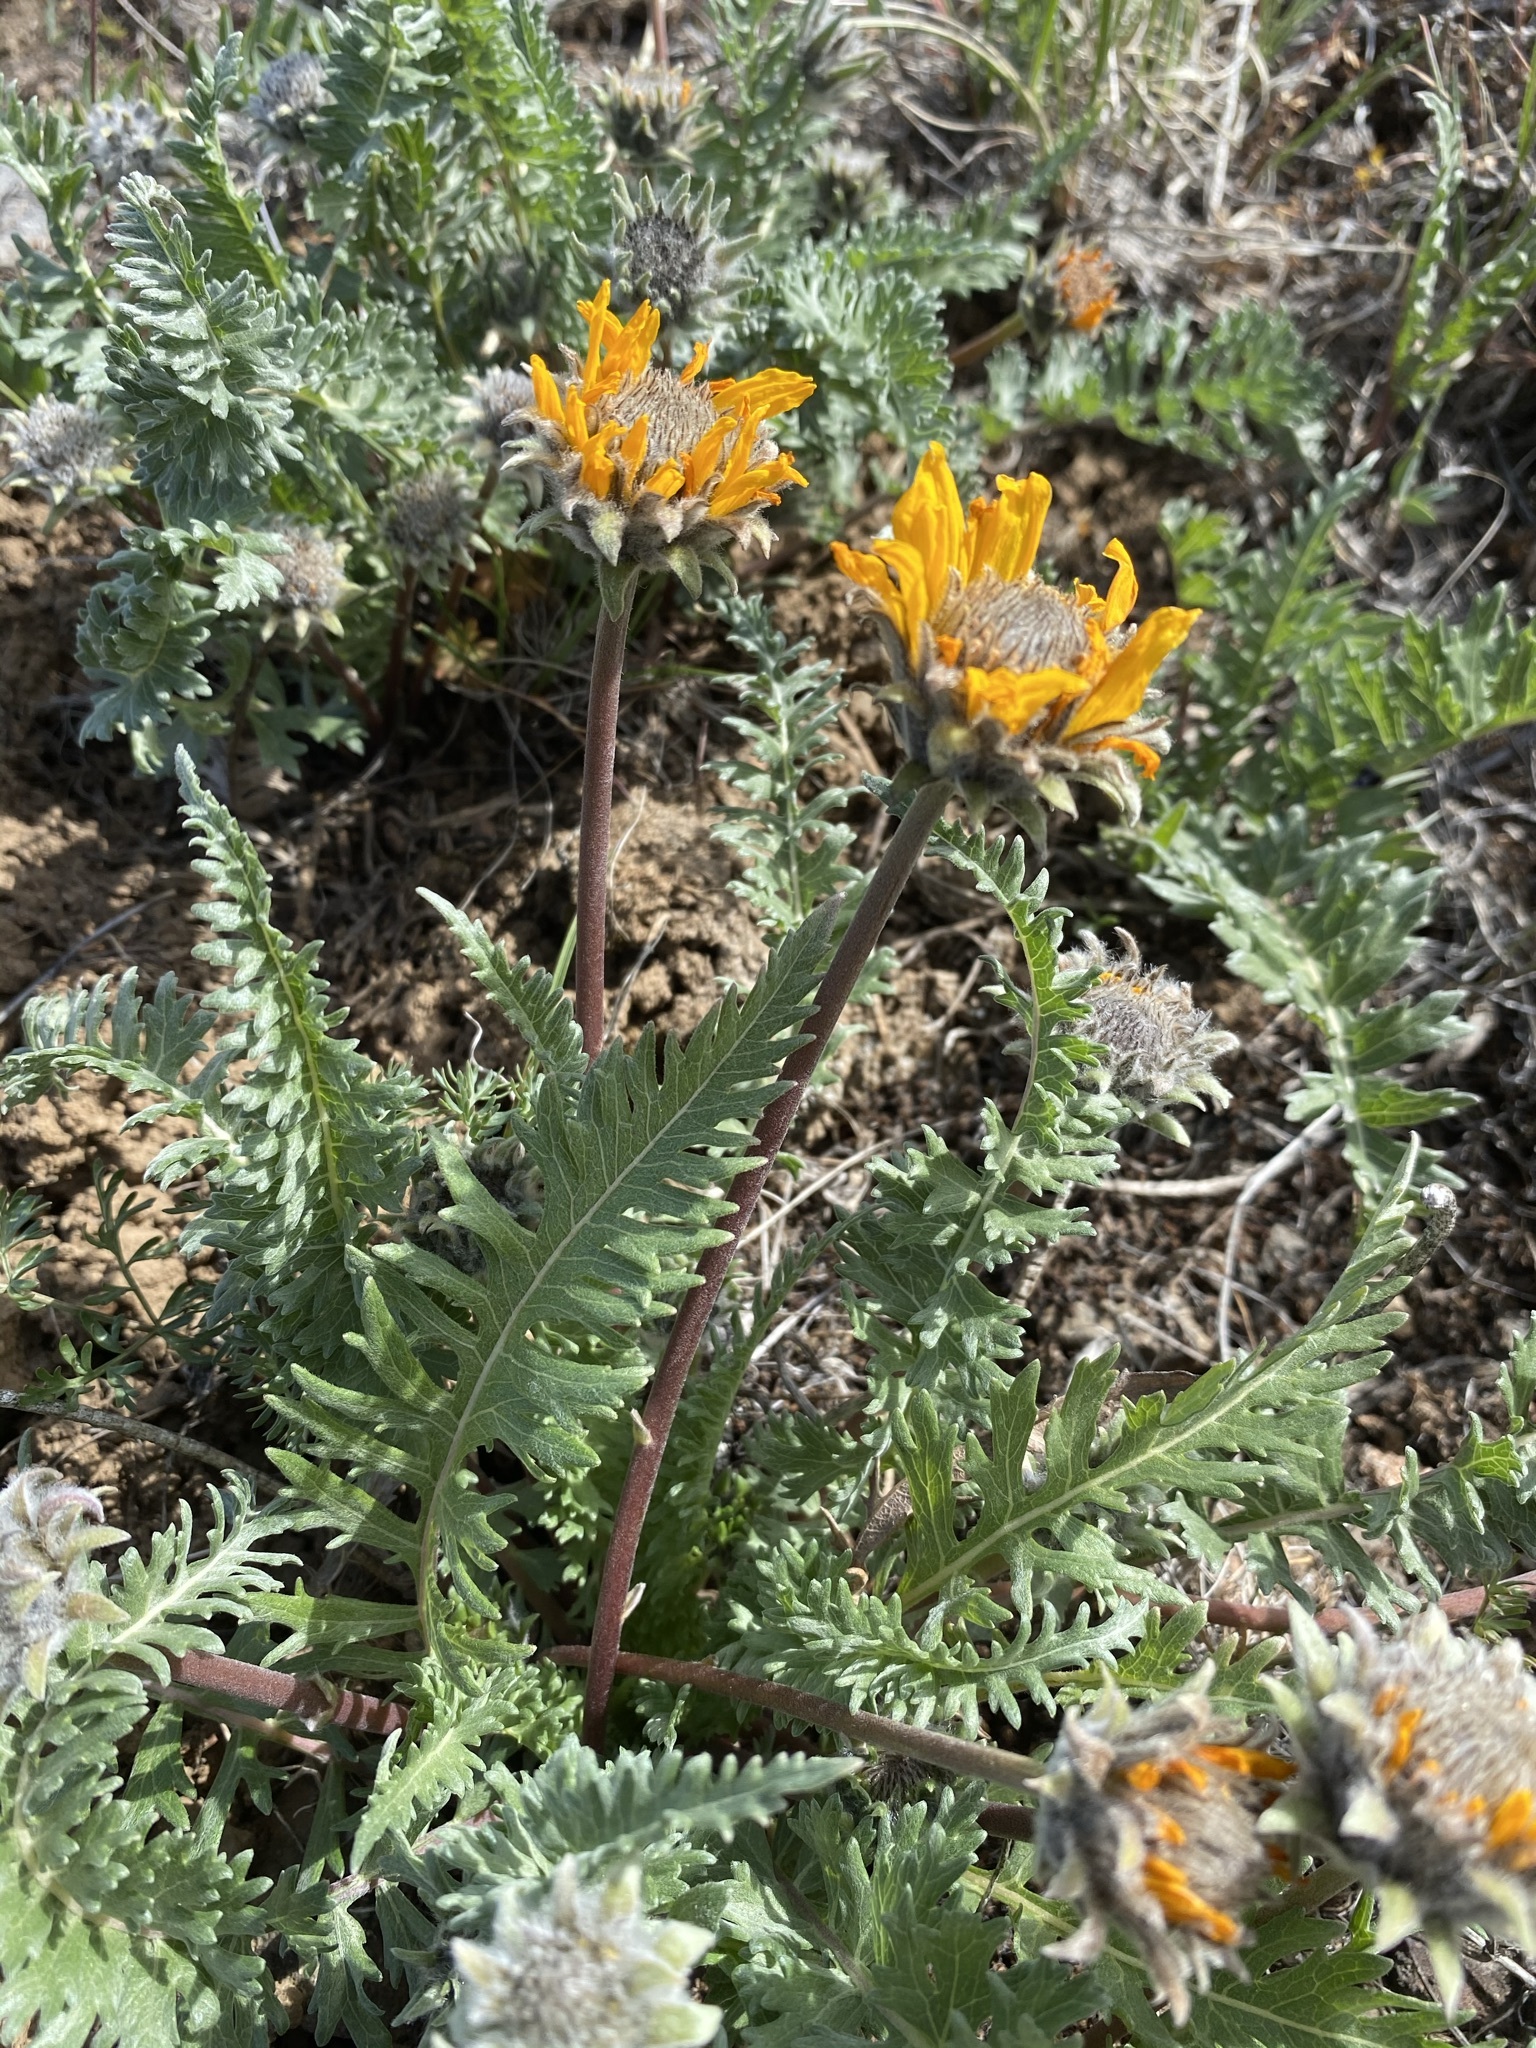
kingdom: Plantae
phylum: Tracheophyta
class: Magnoliopsida
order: Asterales
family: Asteraceae
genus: Balsamorhiza
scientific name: Balsamorhiza hookeri
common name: Hooker's balsamroot
